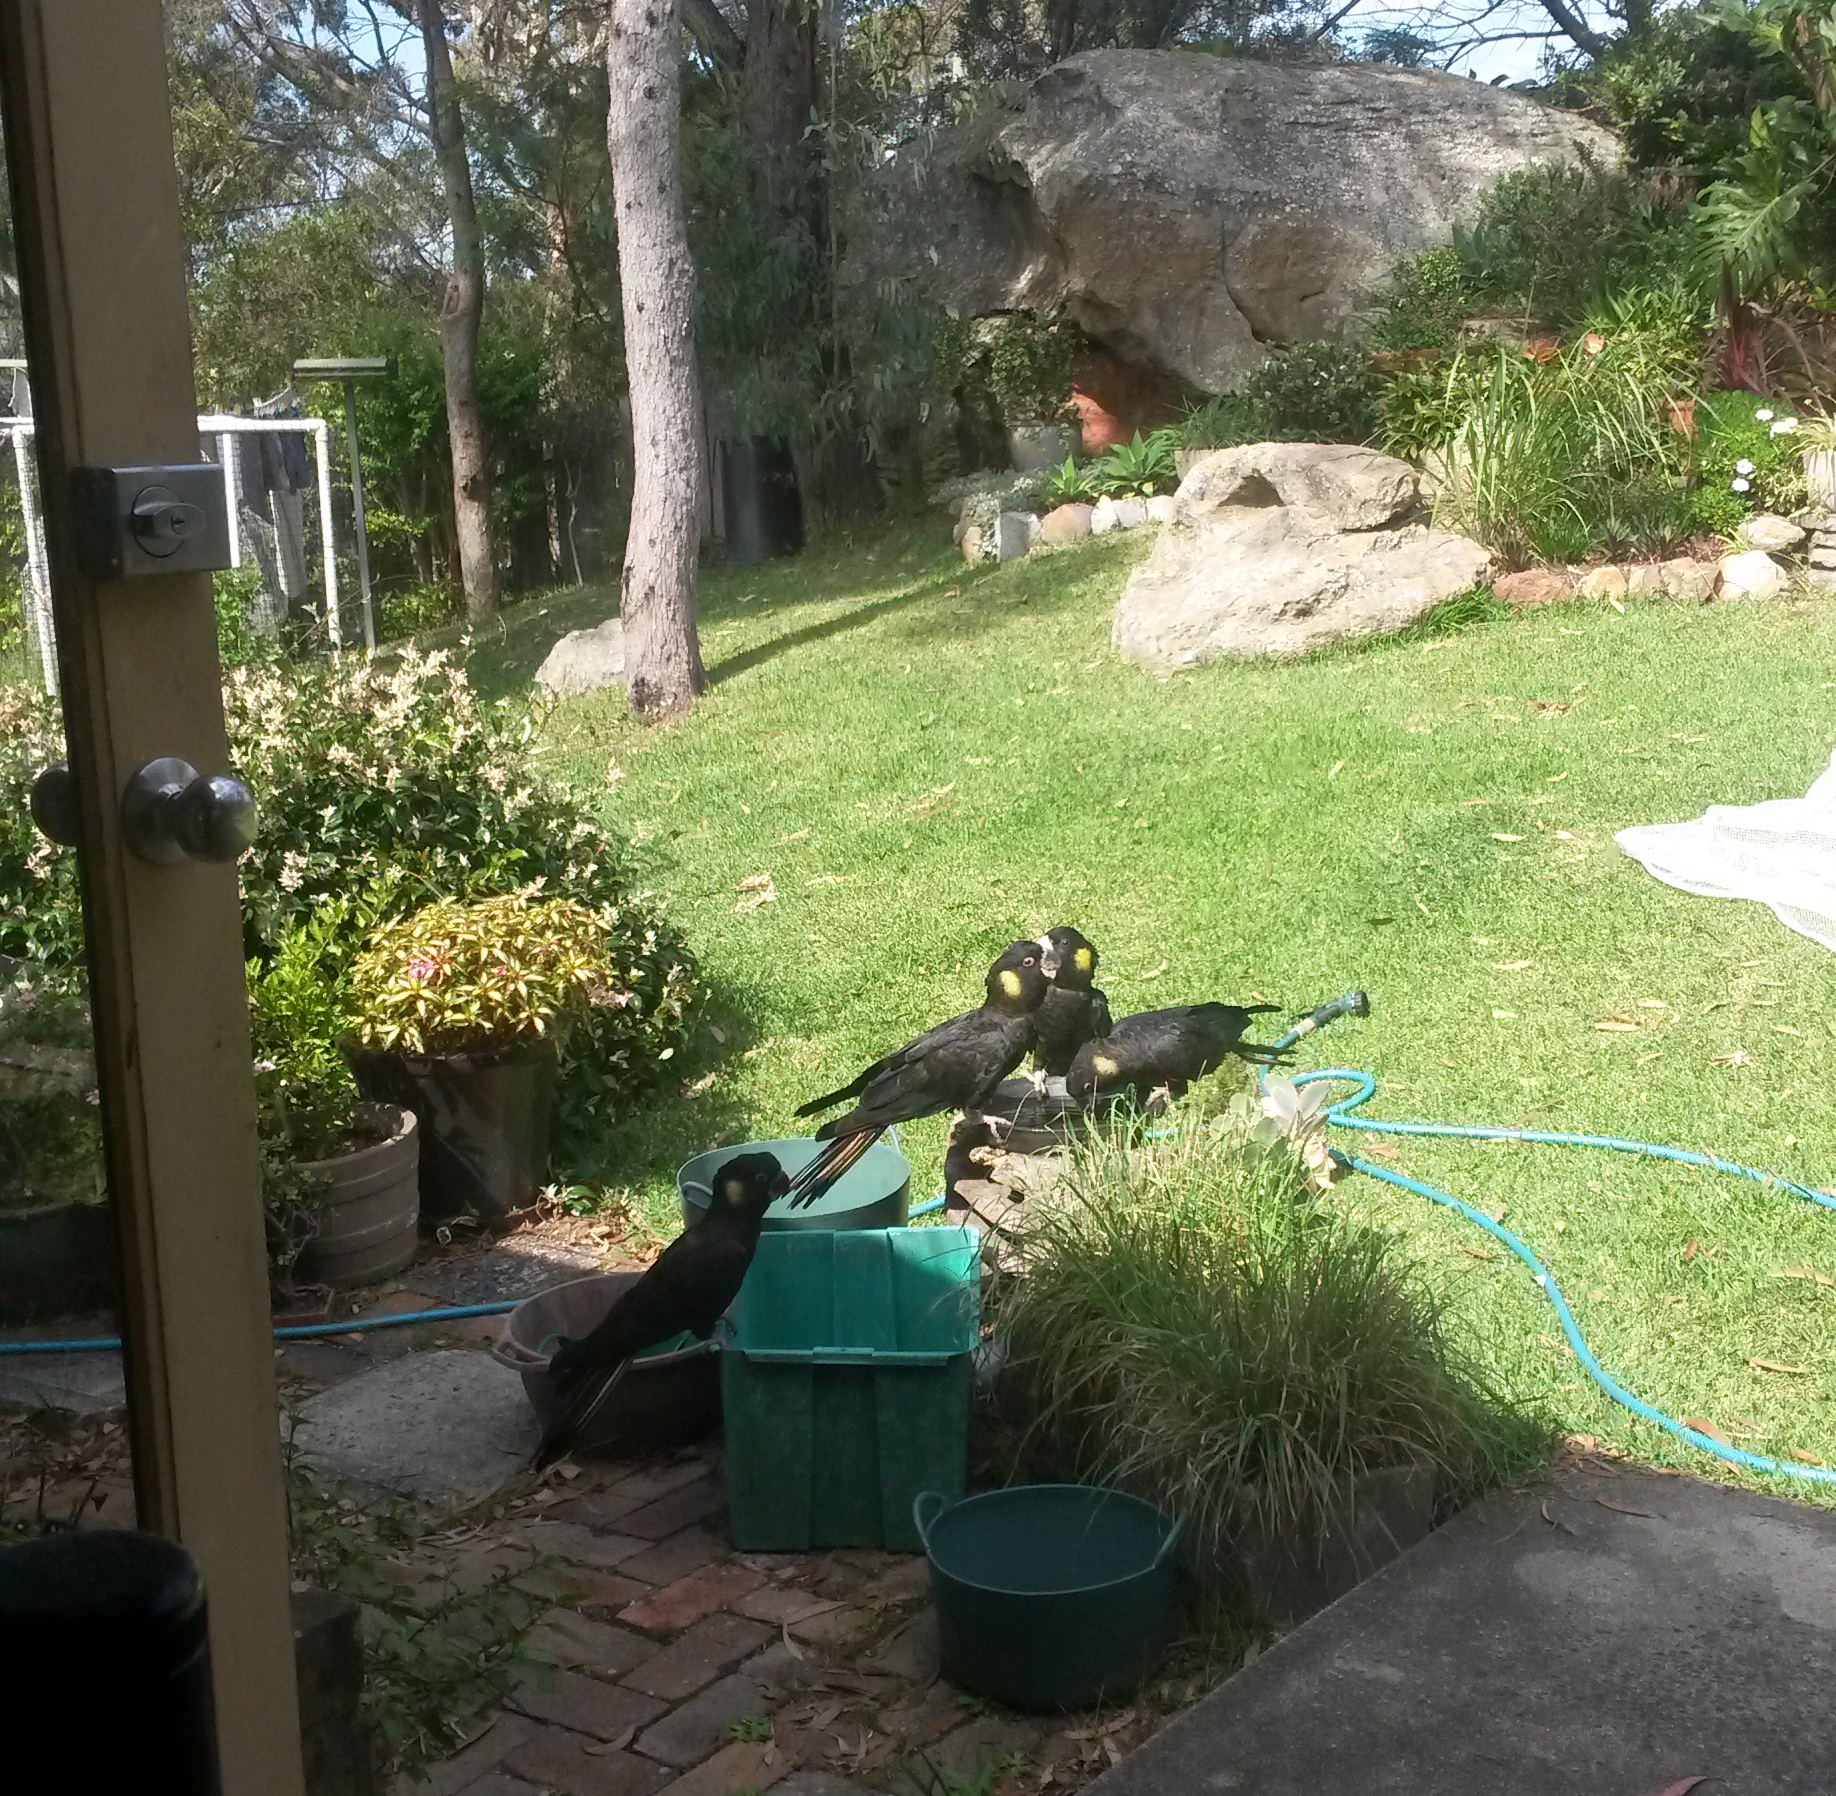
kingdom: Animalia
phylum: Chordata
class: Aves
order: Psittaciformes
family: Cacatuidae
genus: Zanda
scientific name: Zanda funerea
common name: Yellow-tailed black-cockatoo
